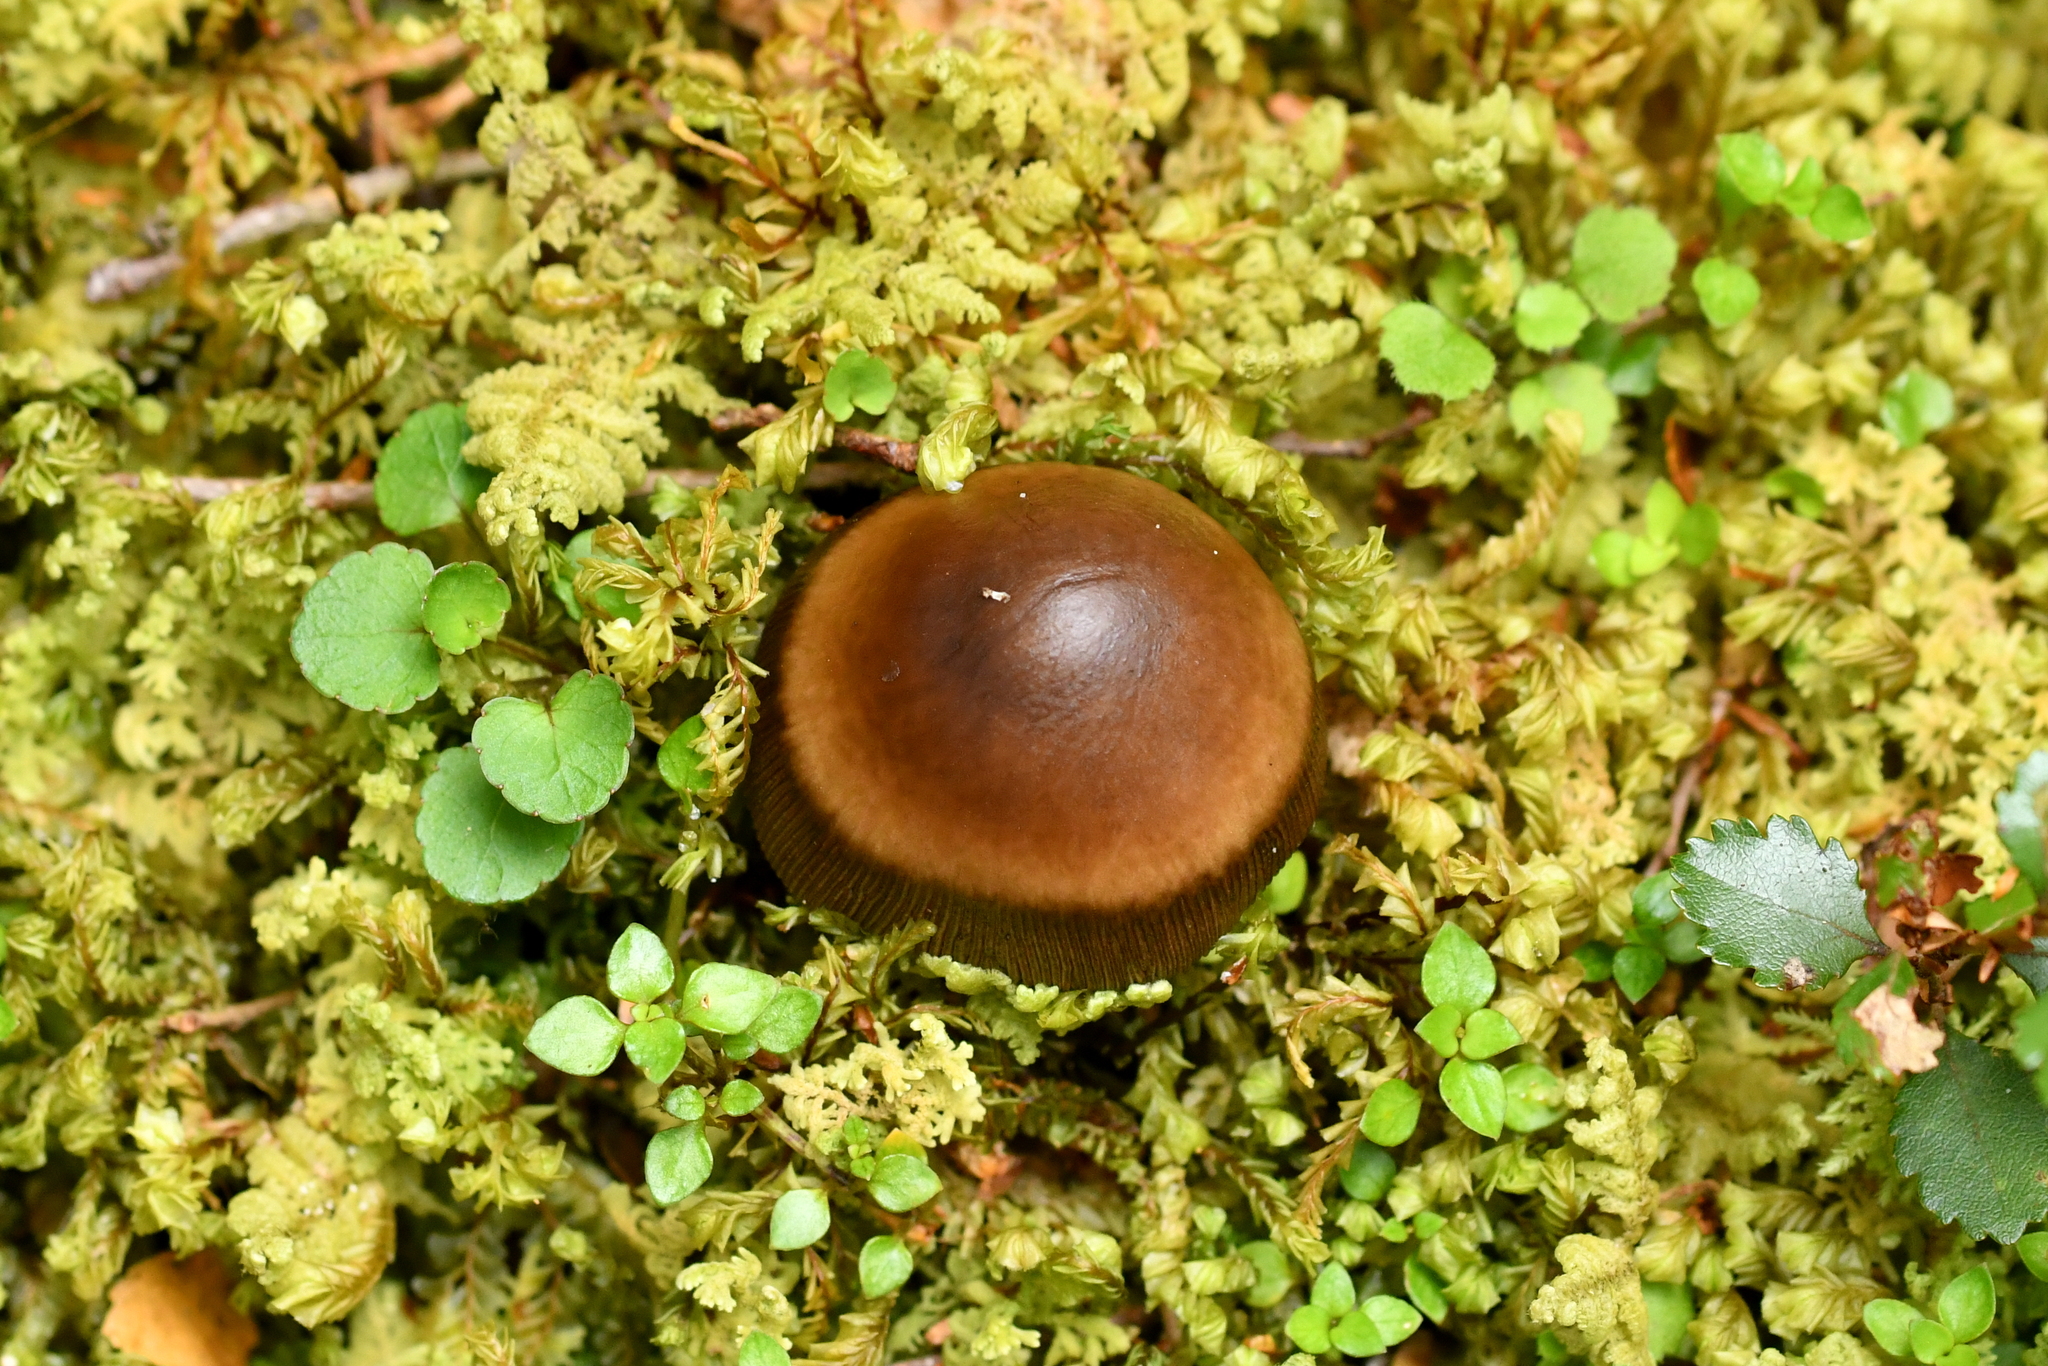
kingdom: Fungi
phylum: Basidiomycota
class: Agaricomycetes
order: Agaricales
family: Amanitaceae
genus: Amanita
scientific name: Amanita pekeoides
